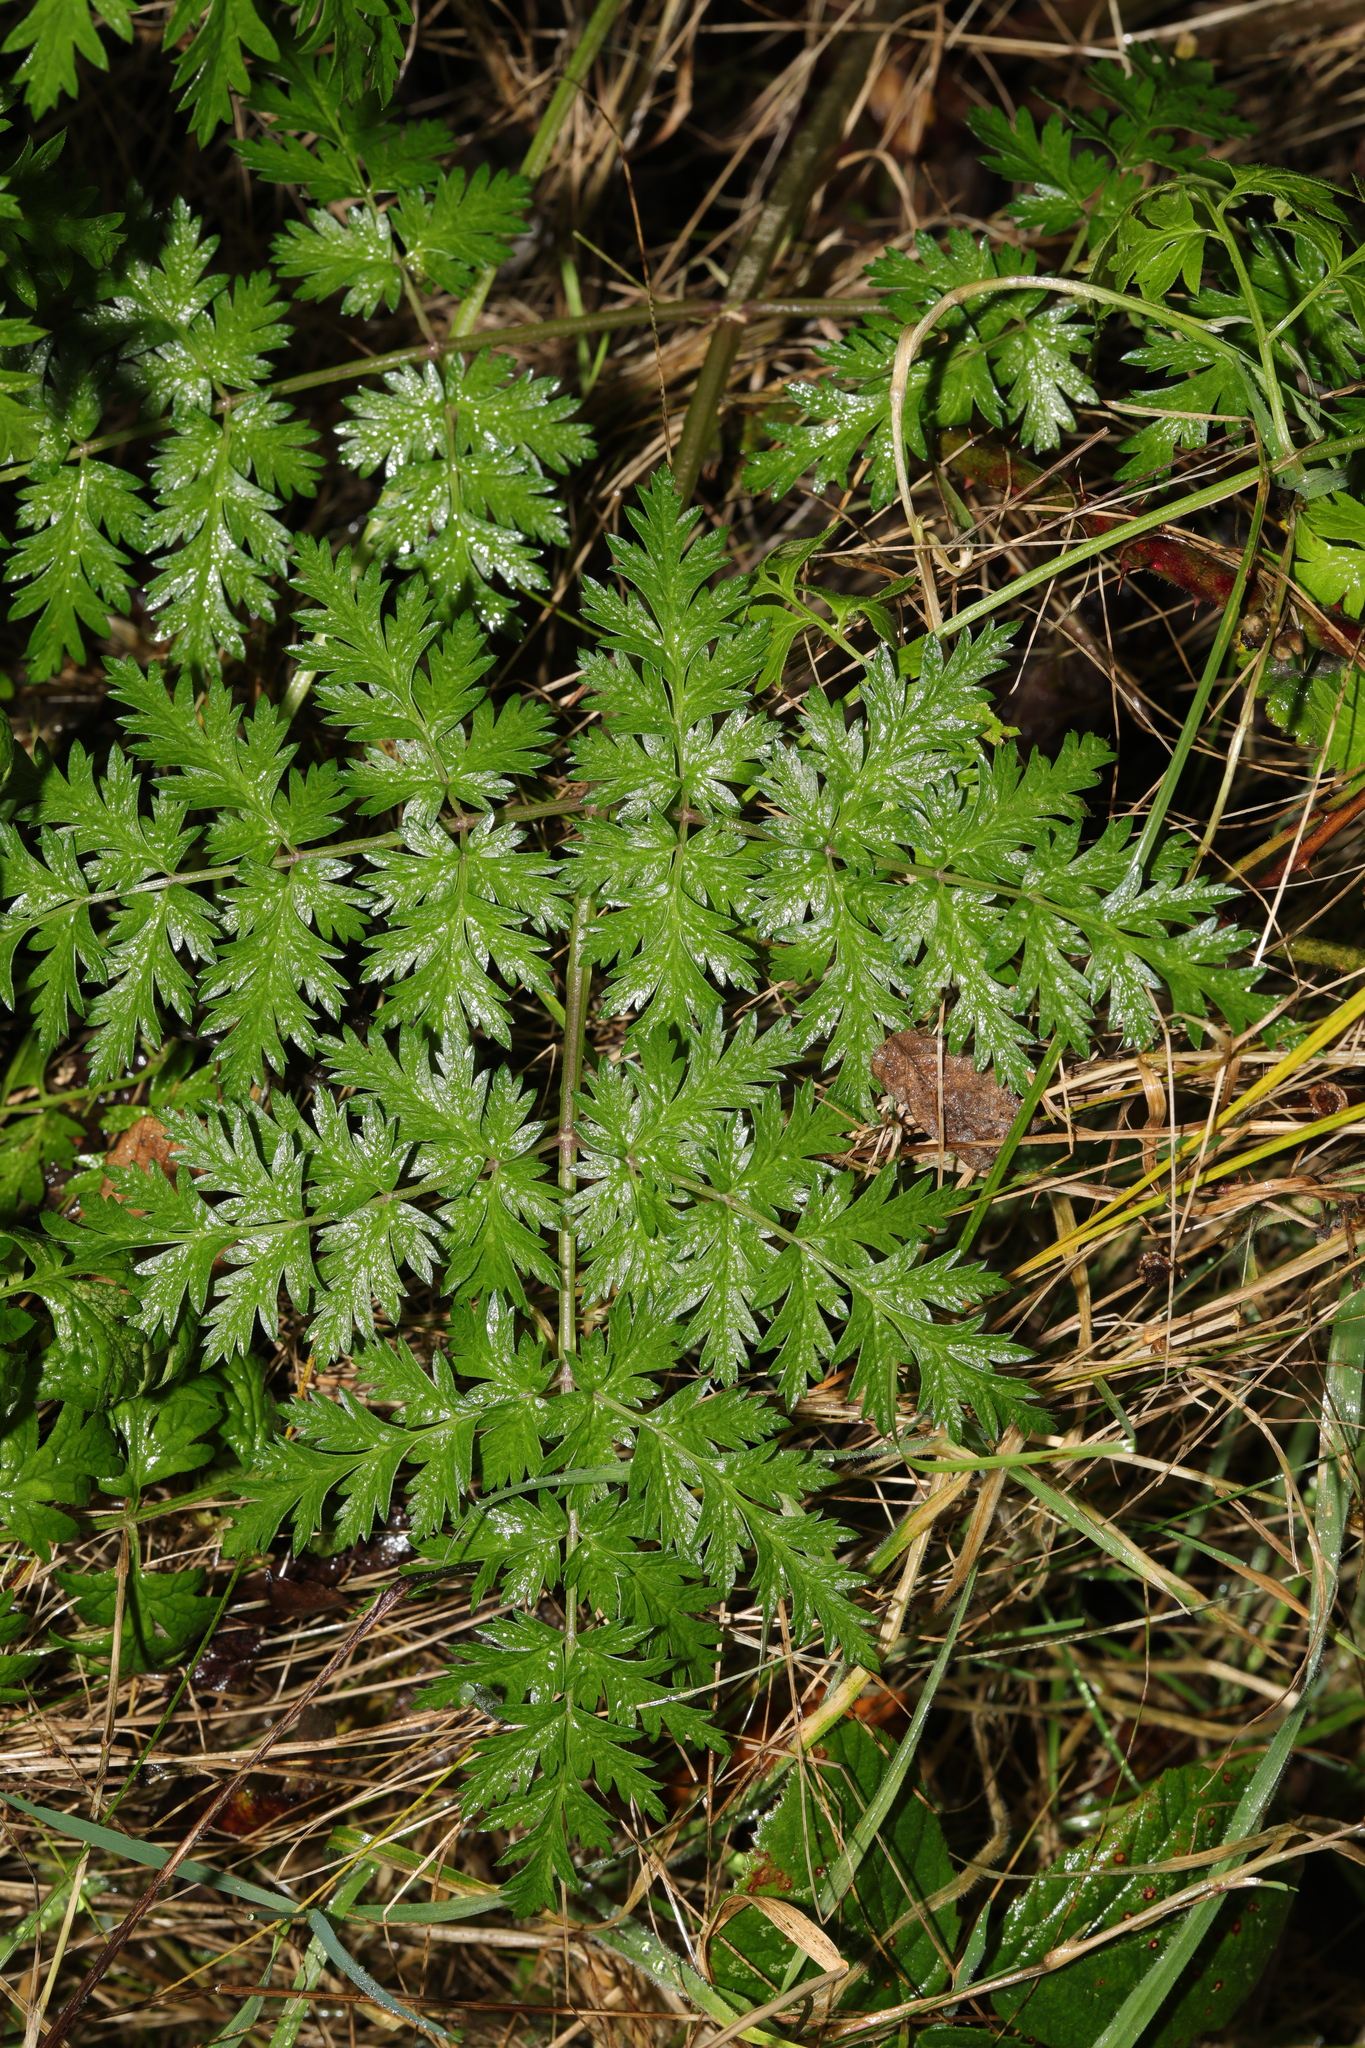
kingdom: Plantae
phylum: Tracheophyta
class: Magnoliopsida
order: Apiales
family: Apiaceae
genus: Anthriscus
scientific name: Anthriscus sylvestris
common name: Cow parsley
